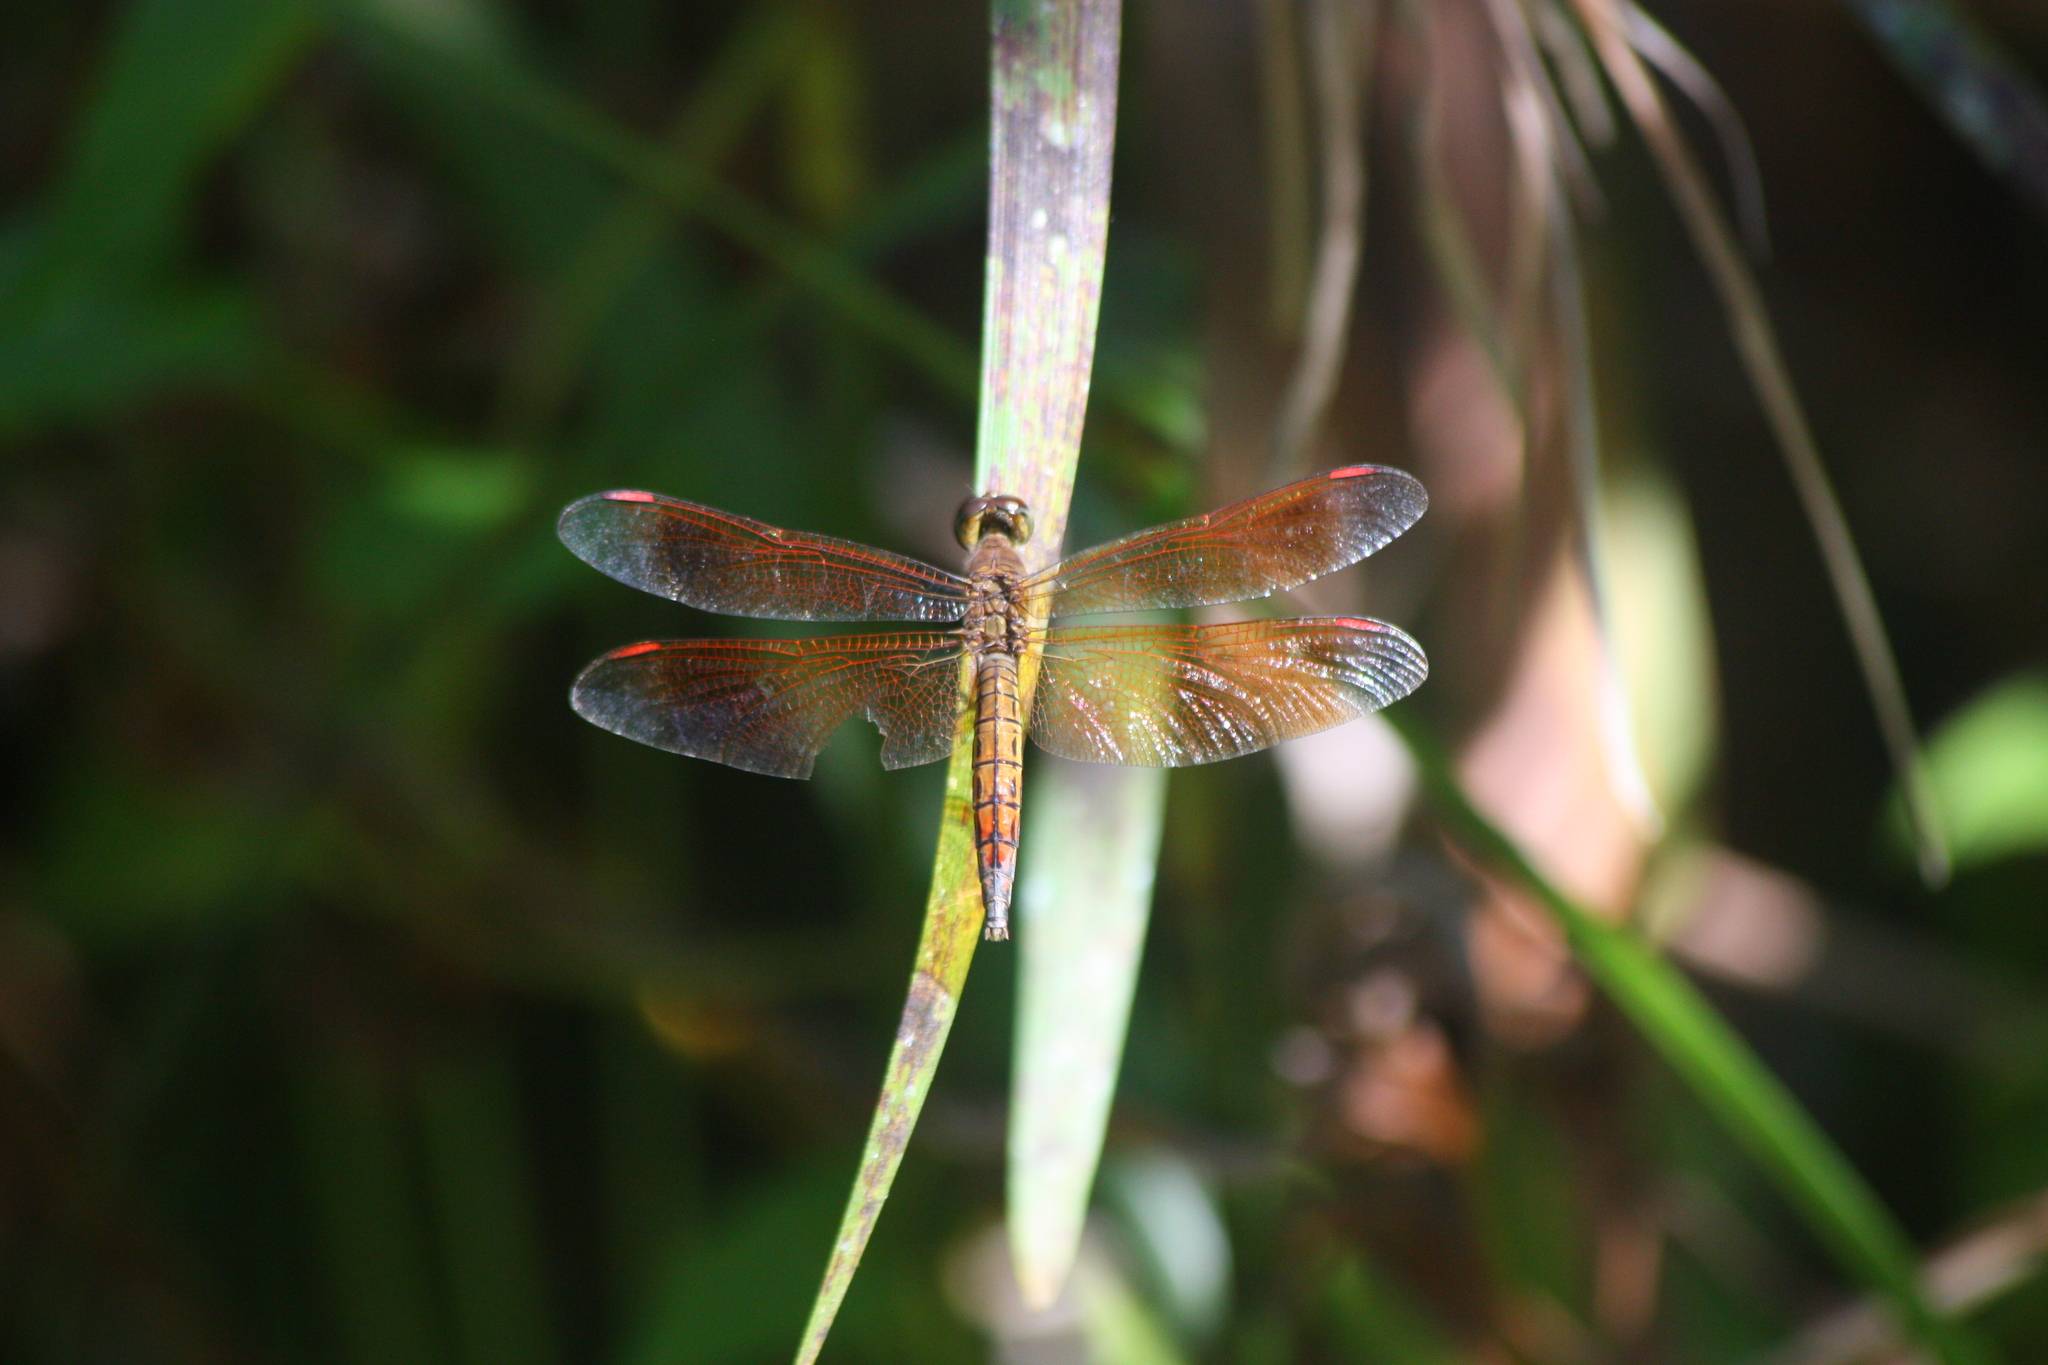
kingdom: Animalia
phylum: Arthropoda
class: Insecta
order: Odonata
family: Libellulidae
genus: Neurothemis
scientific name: Neurothemis terminata
